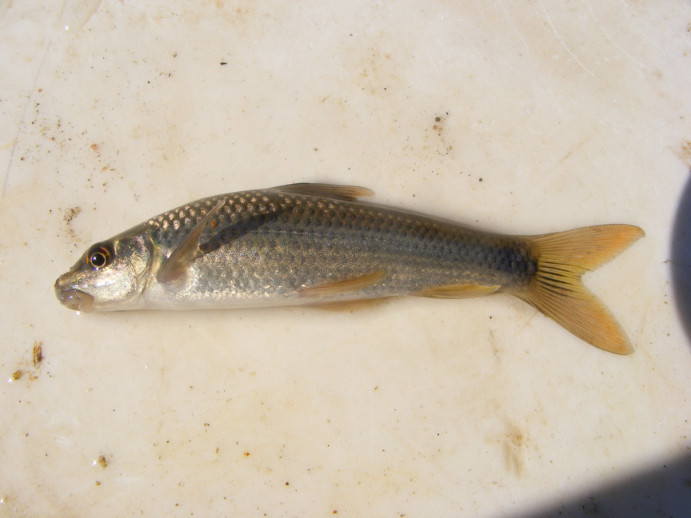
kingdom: Animalia
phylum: Chordata
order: Cypriniformes
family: Cyprinidae
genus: Labeo
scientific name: Labeo molybdinus
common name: Leaden labeo
